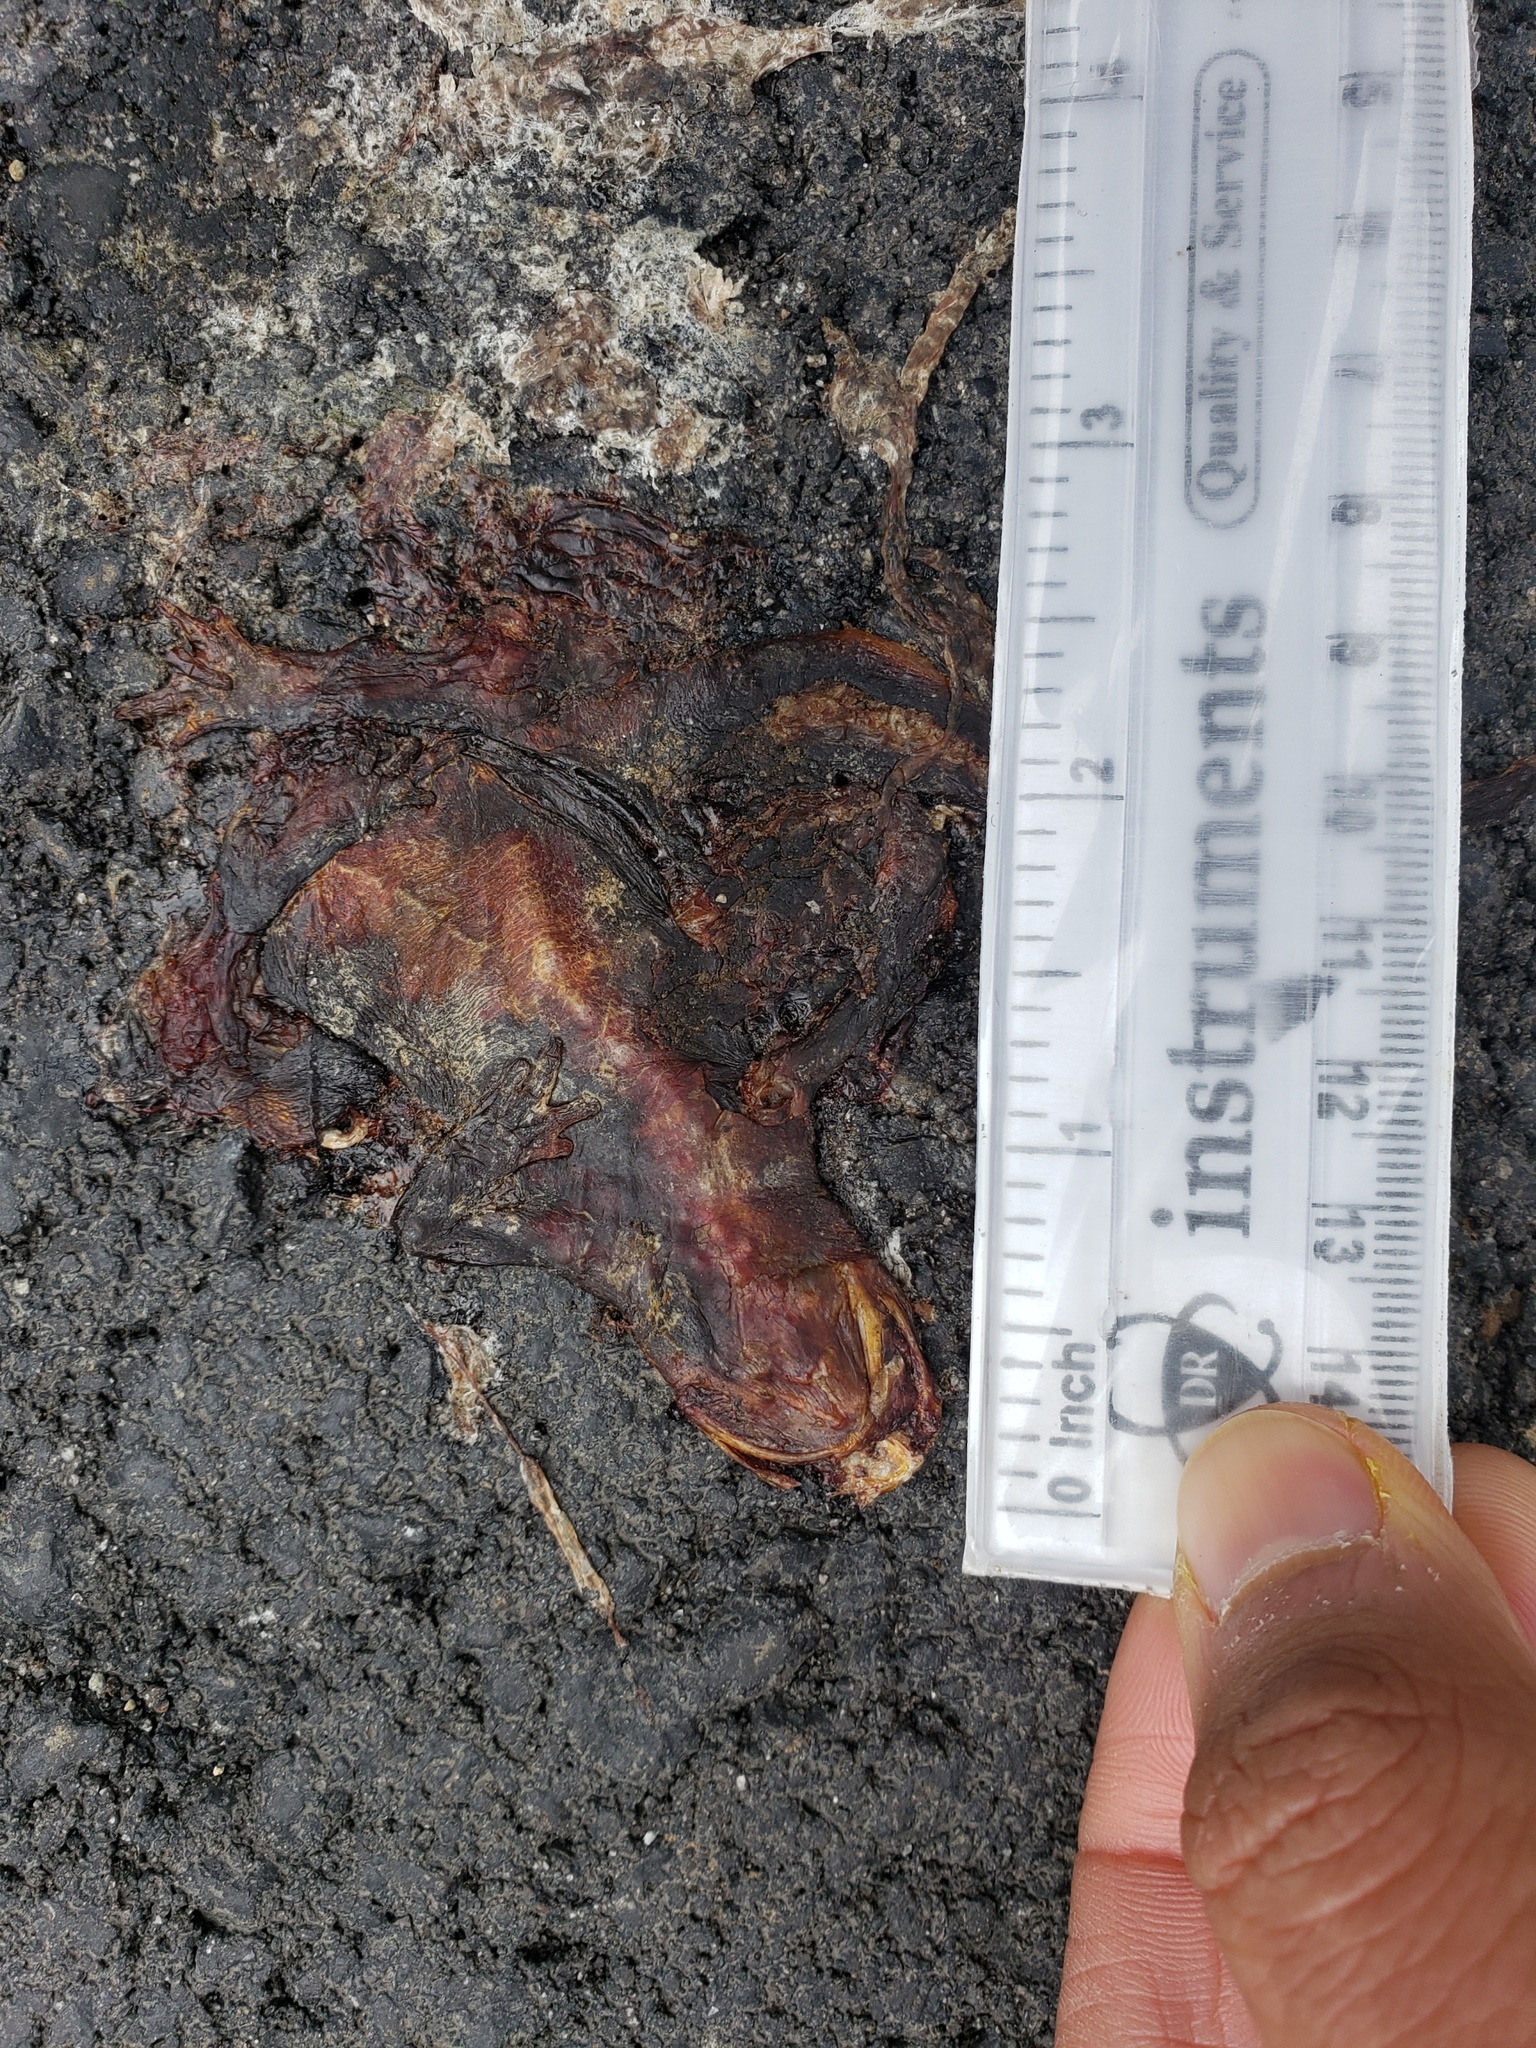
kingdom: Animalia
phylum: Chordata
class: Amphibia
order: Caudata
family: Salamandridae
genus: Taricha
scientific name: Taricha
